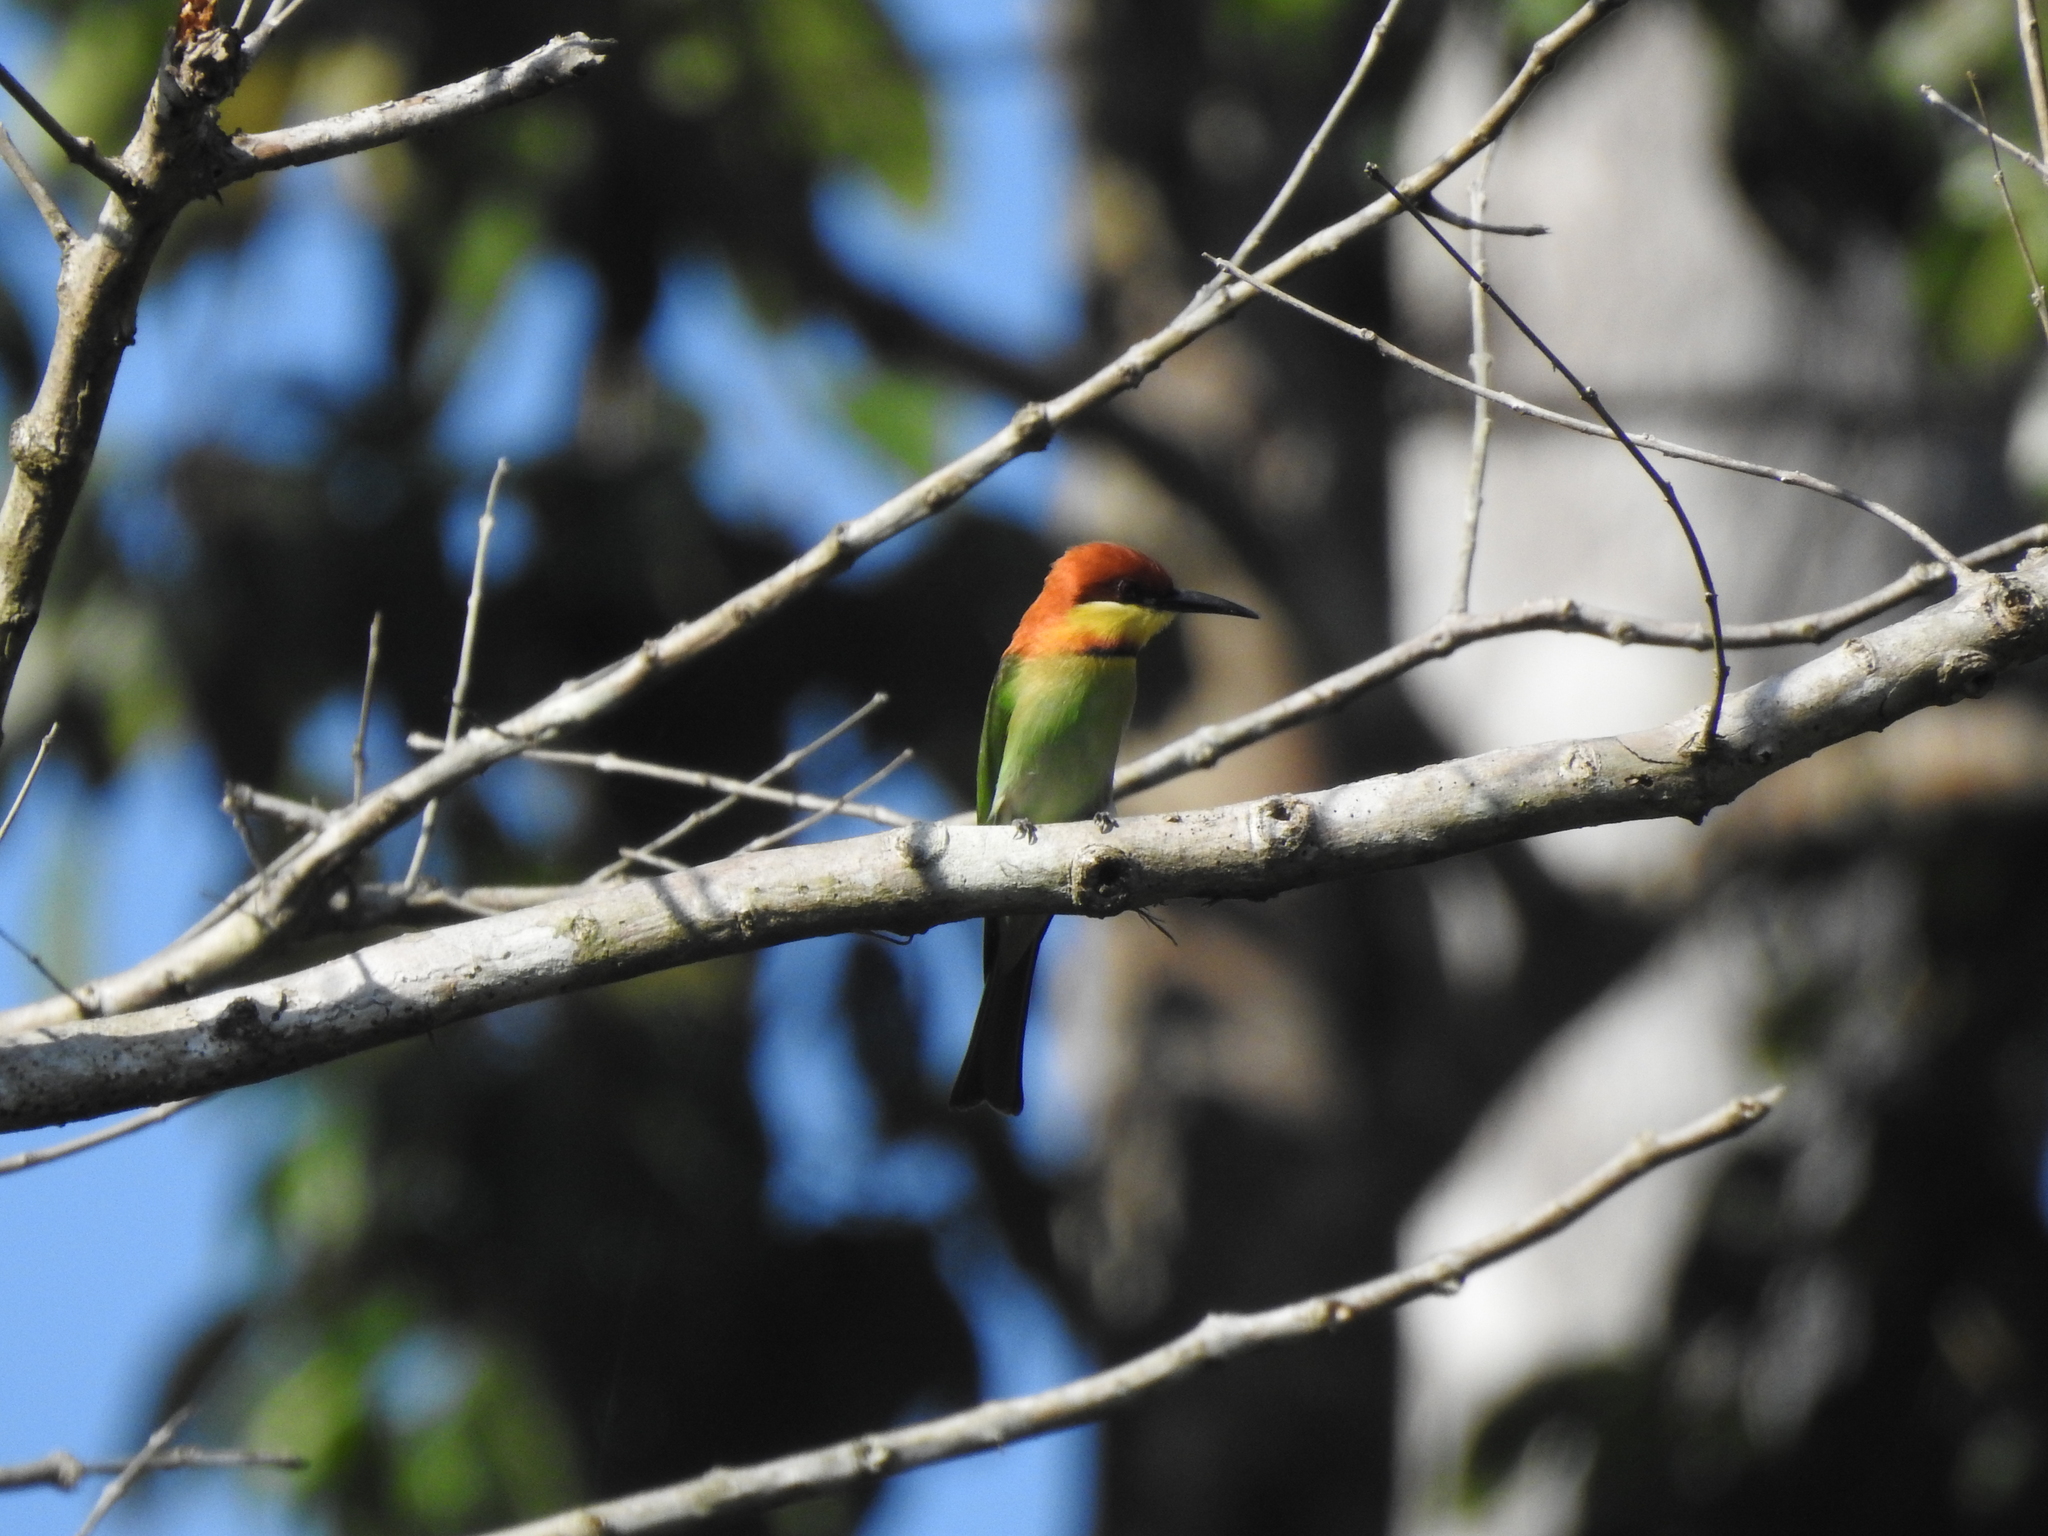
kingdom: Animalia
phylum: Chordata
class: Aves
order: Coraciiformes
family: Meropidae
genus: Merops
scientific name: Merops leschenaulti
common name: Chestnut-headed bee-eater
